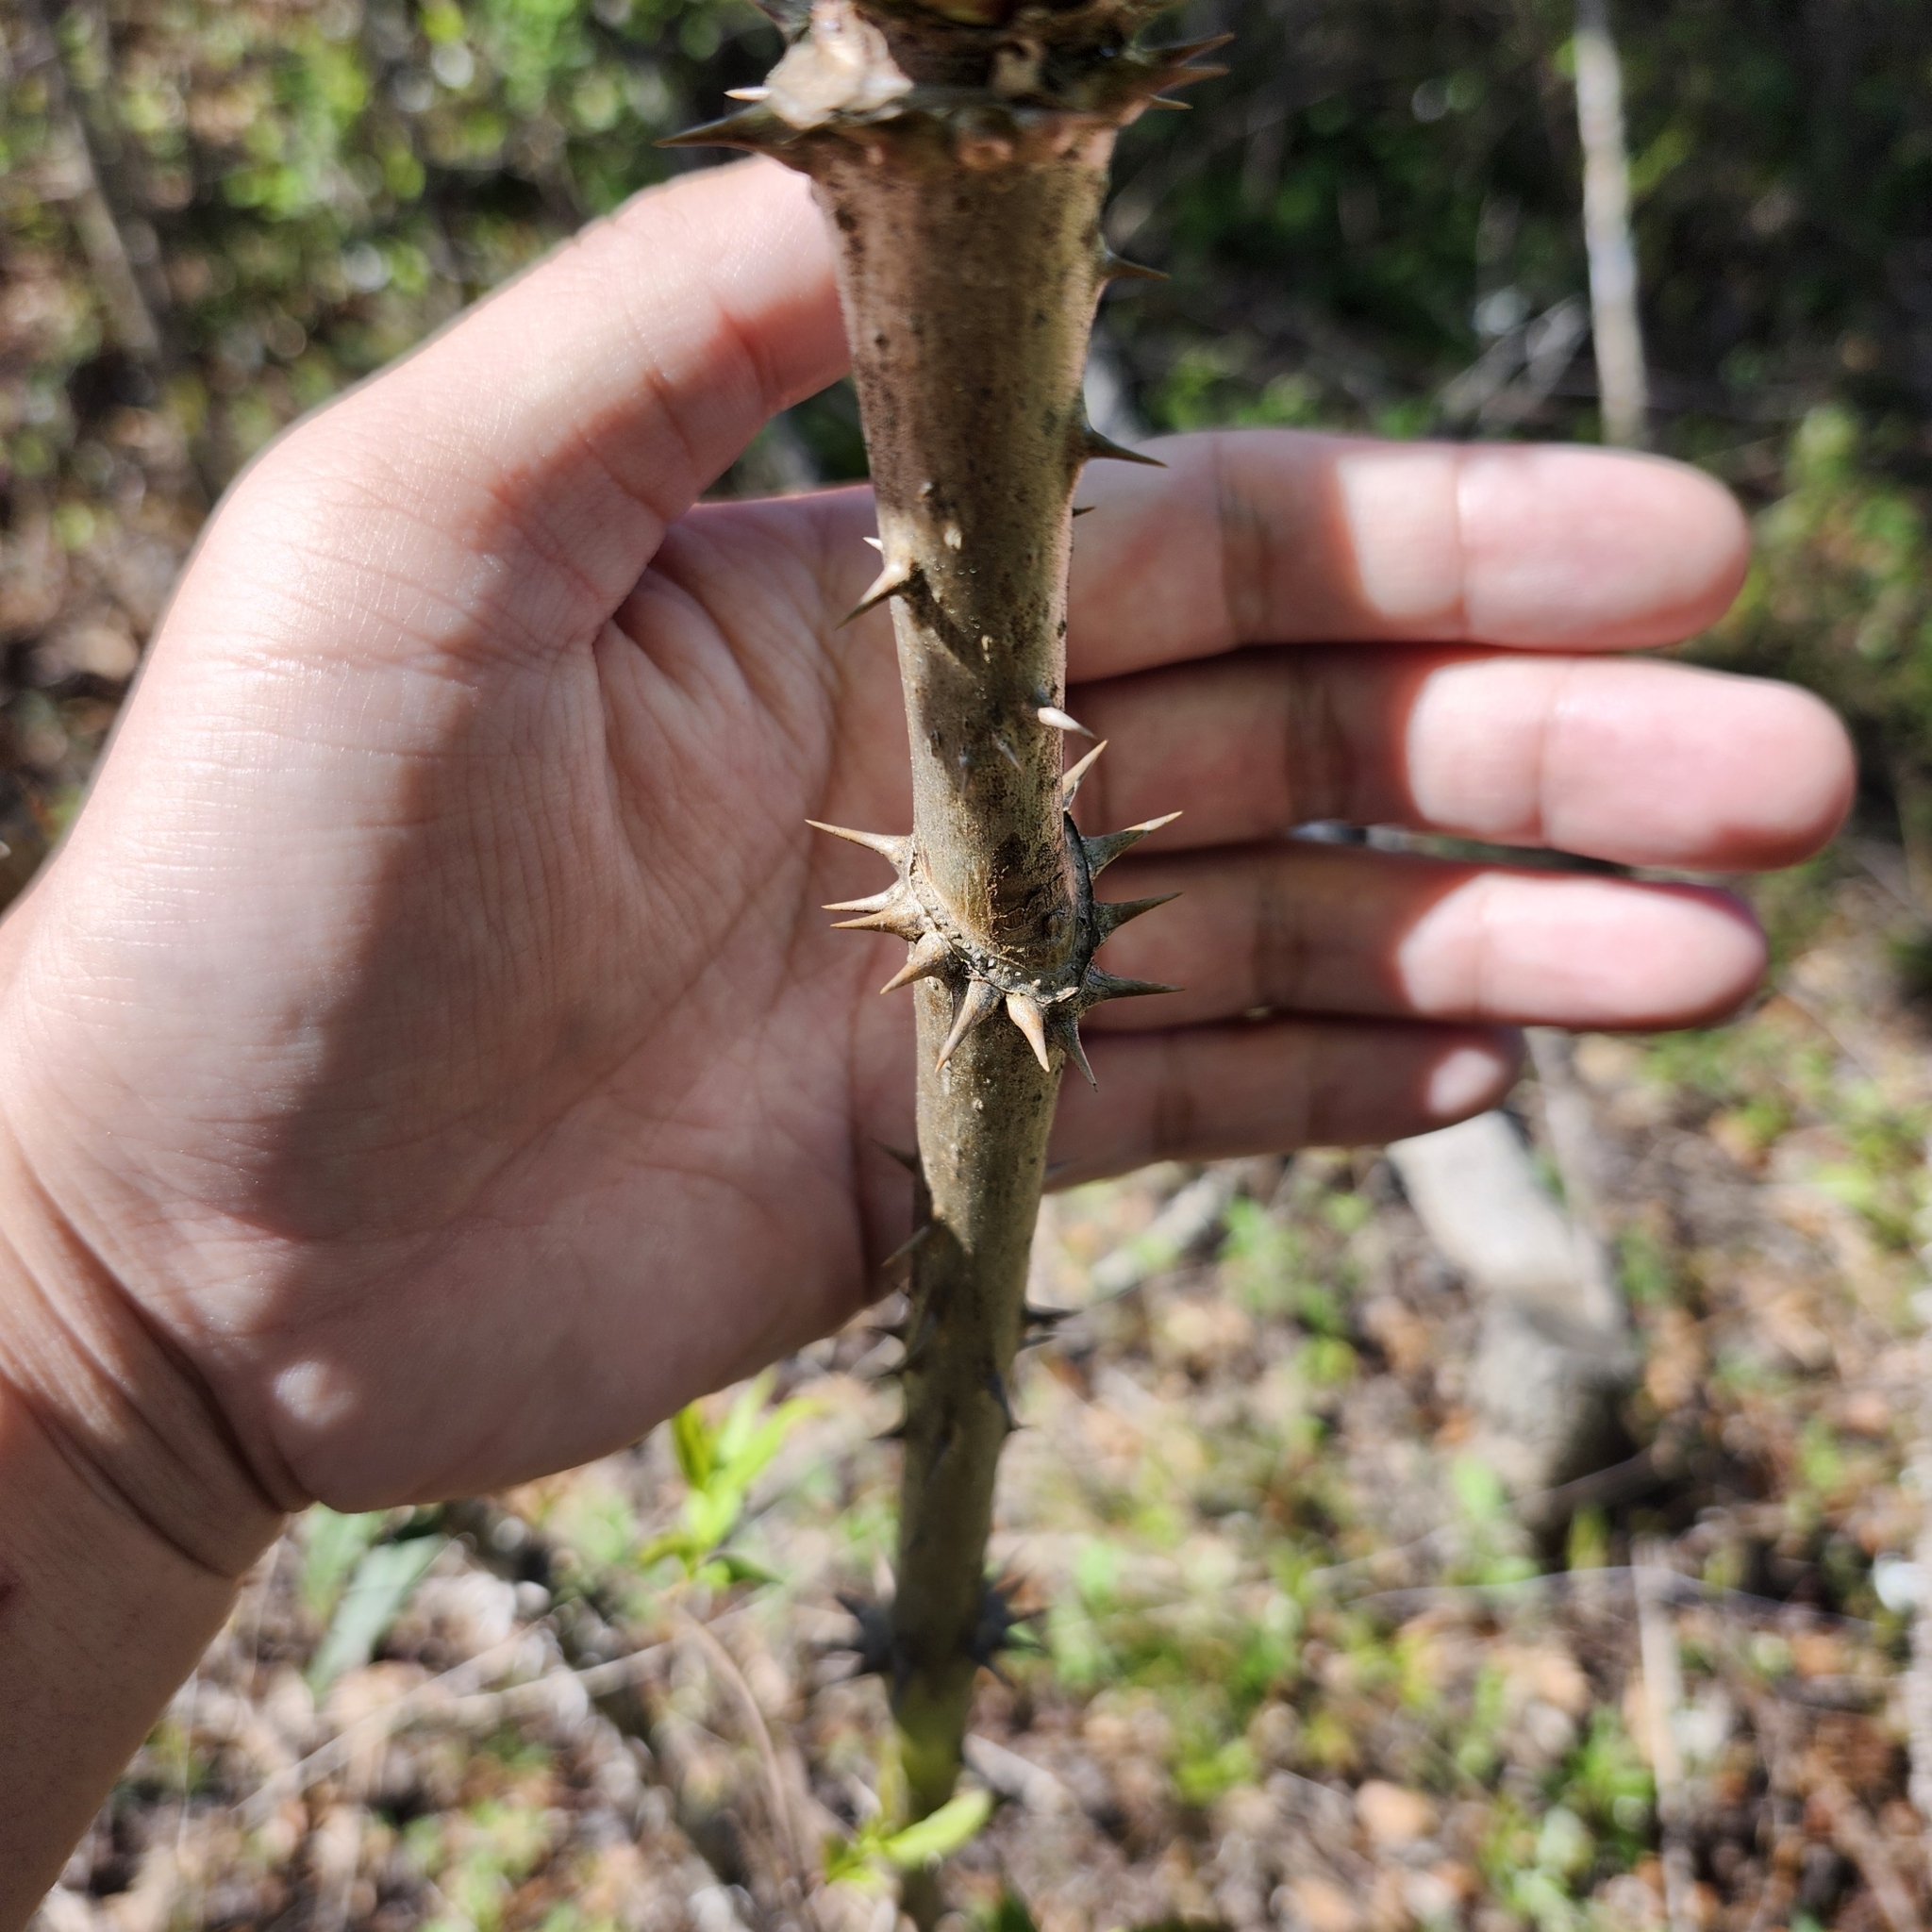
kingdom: Plantae
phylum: Tracheophyta
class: Magnoliopsida
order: Apiales
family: Araliaceae
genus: Aralia
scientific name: Aralia spinosa
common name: Hercules'-club
